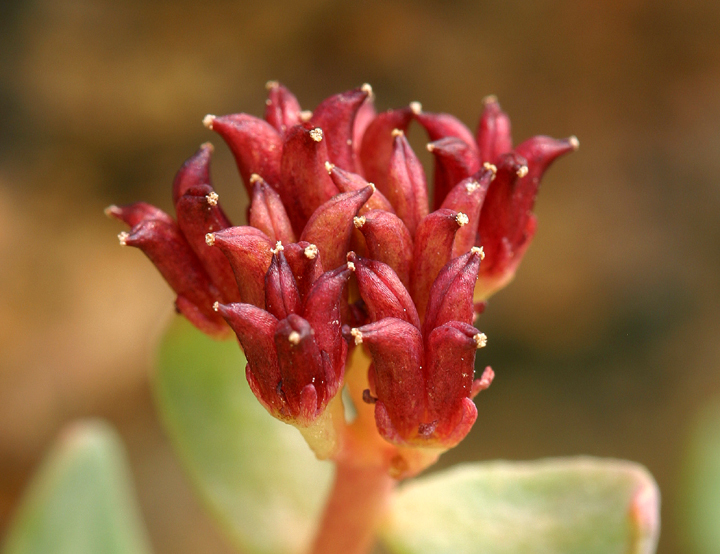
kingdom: Plantae
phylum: Tracheophyta
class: Magnoliopsida
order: Saxifragales
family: Crassulaceae
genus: Rhodiola
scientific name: Rhodiola integrifolia
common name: Western roseroot
